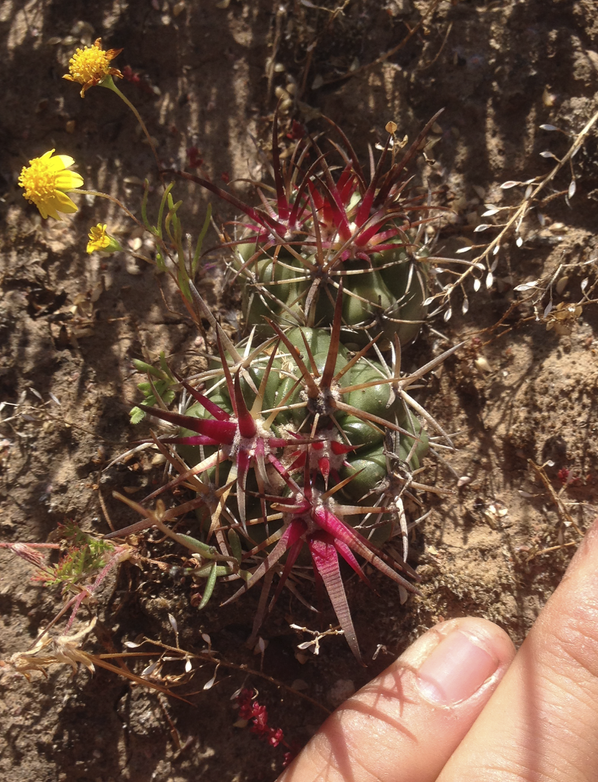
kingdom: Plantae
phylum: Tracheophyta
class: Magnoliopsida
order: Caryophyllales
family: Cactaceae
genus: Ferocactus
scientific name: Ferocactus viridescens
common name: San diego barrel cactus
